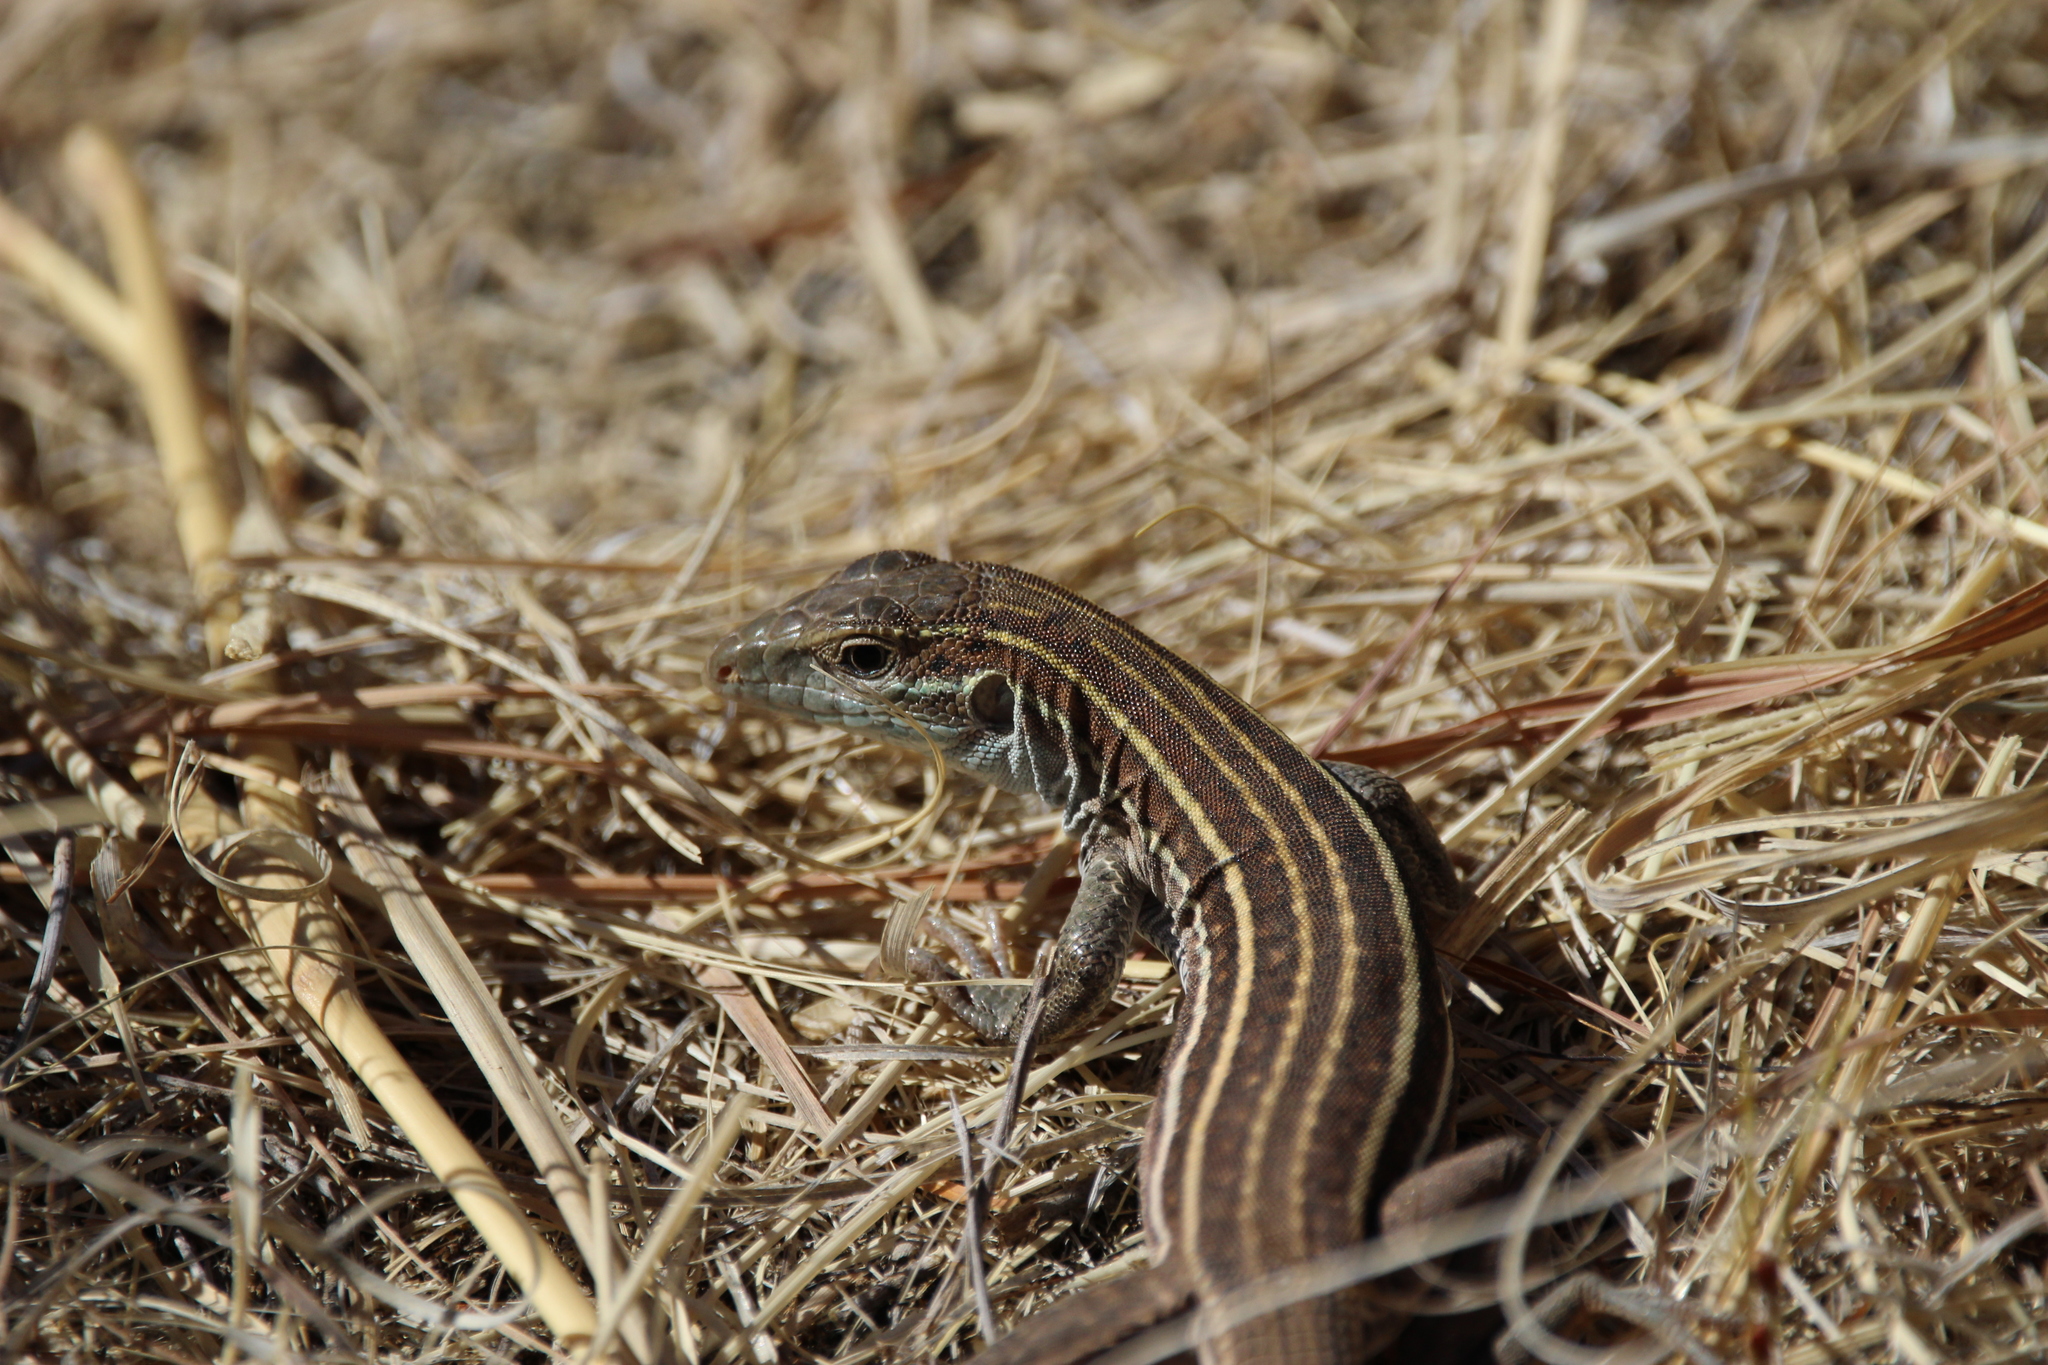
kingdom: Animalia
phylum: Chordata
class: Squamata
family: Teiidae
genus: Aspidoscelis
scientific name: Aspidoscelis sonorae
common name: Sonoran spotted whiptail
